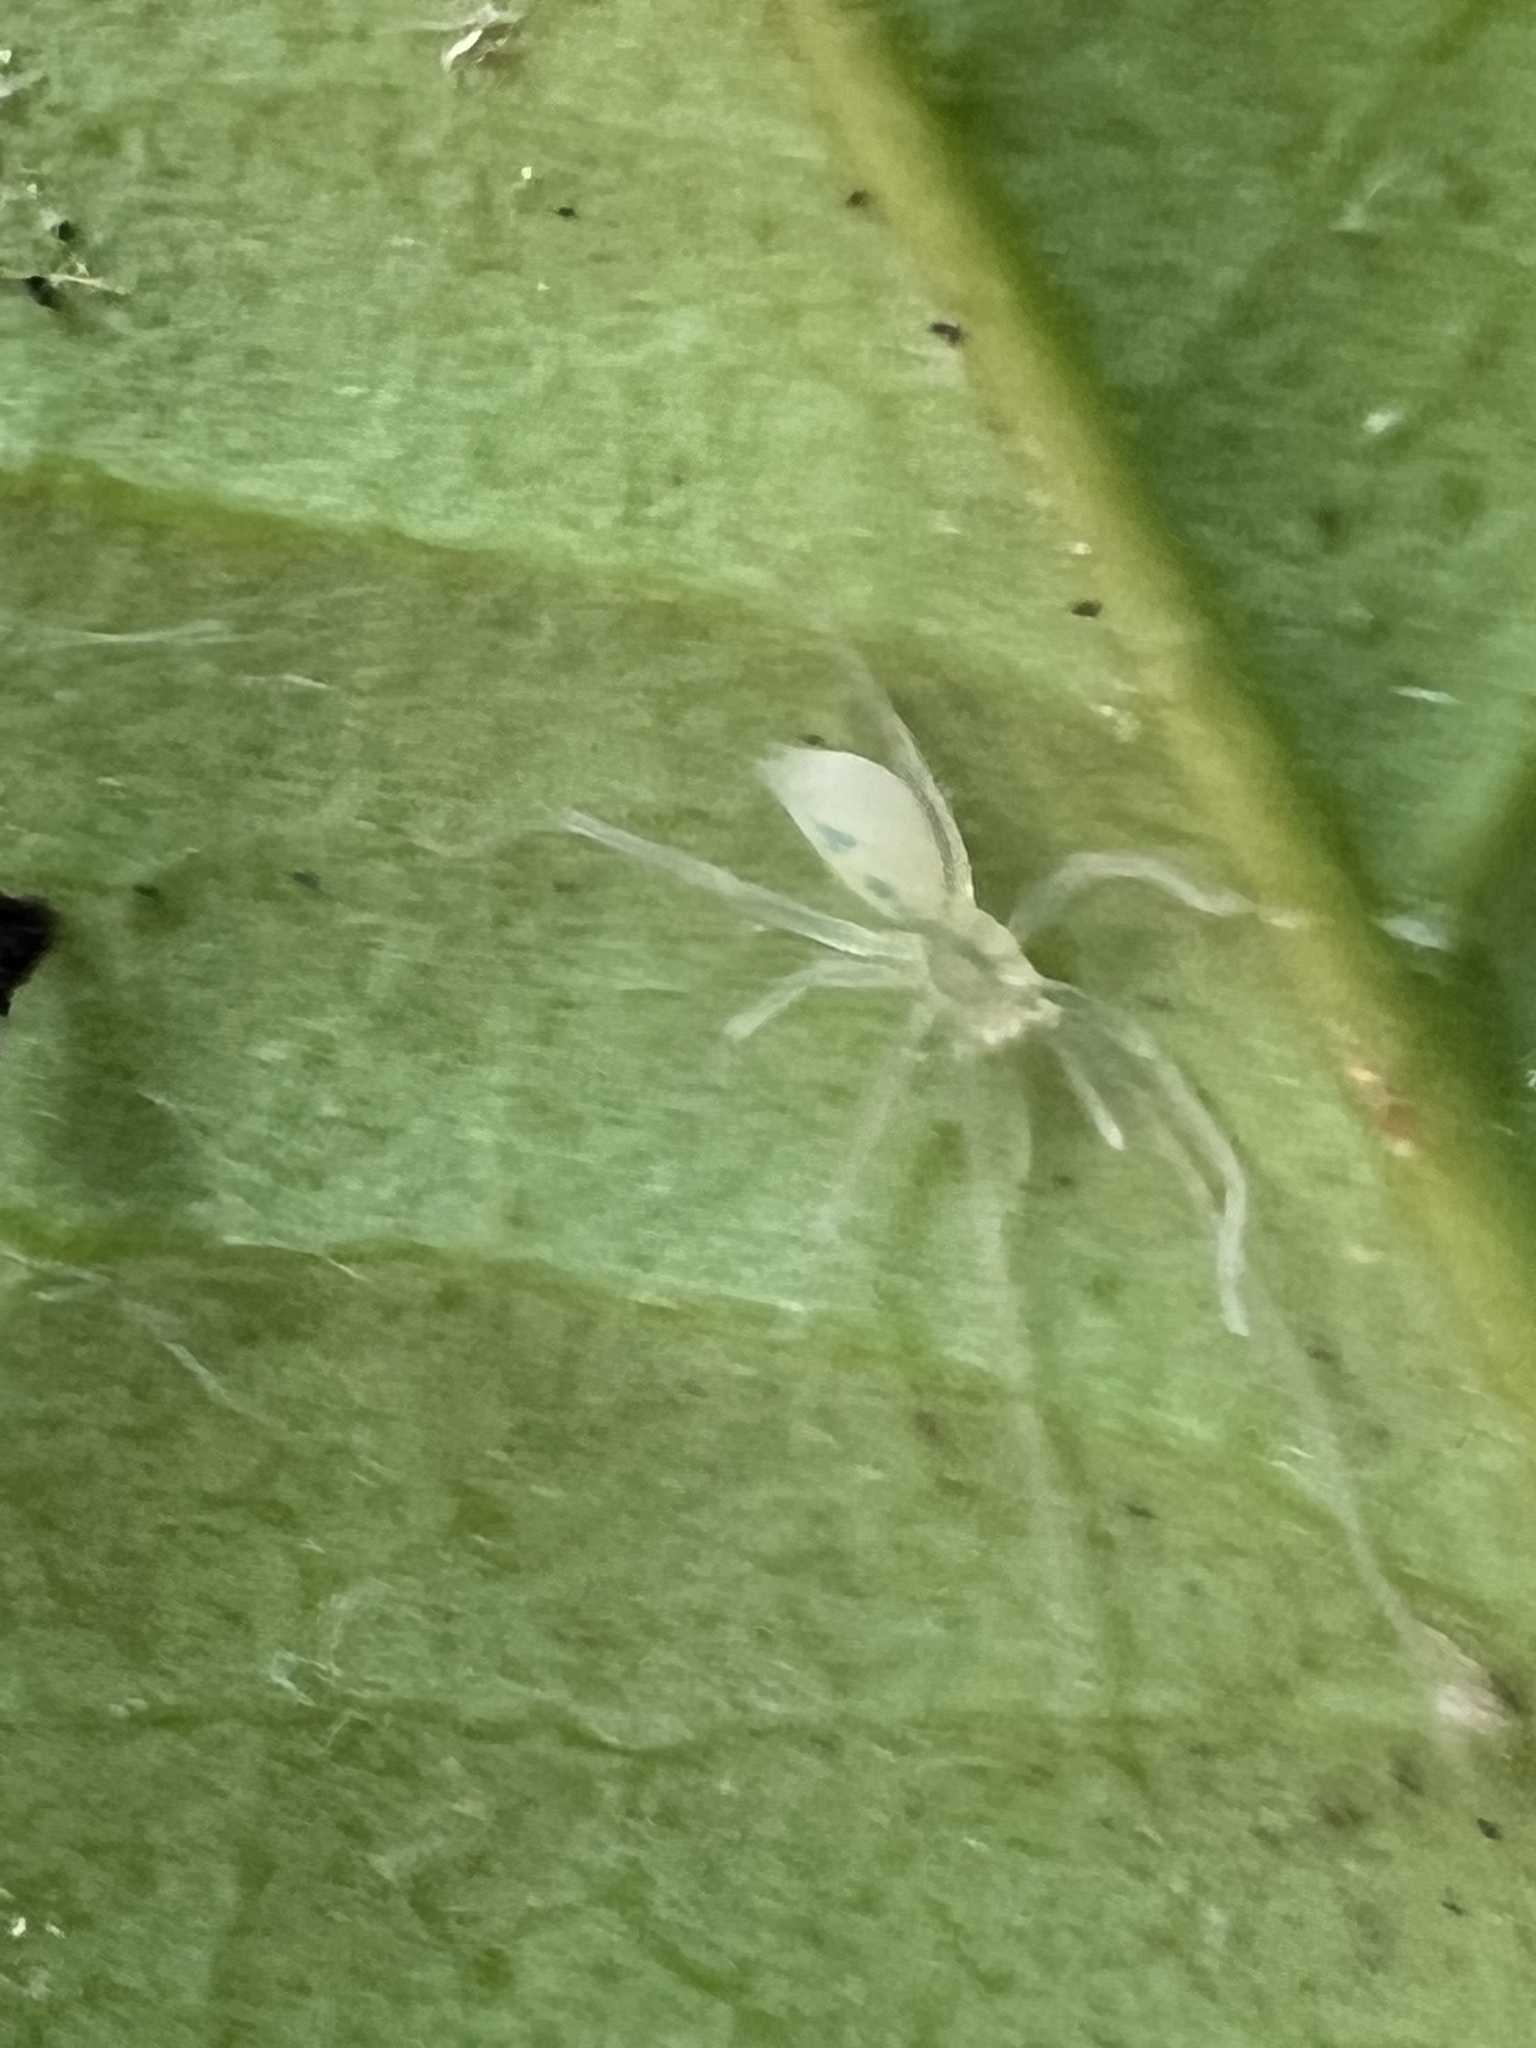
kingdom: Animalia
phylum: Arthropoda
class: Arachnida
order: Araneae
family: Anyphaenidae
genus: Wulfila
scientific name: Wulfila albens
